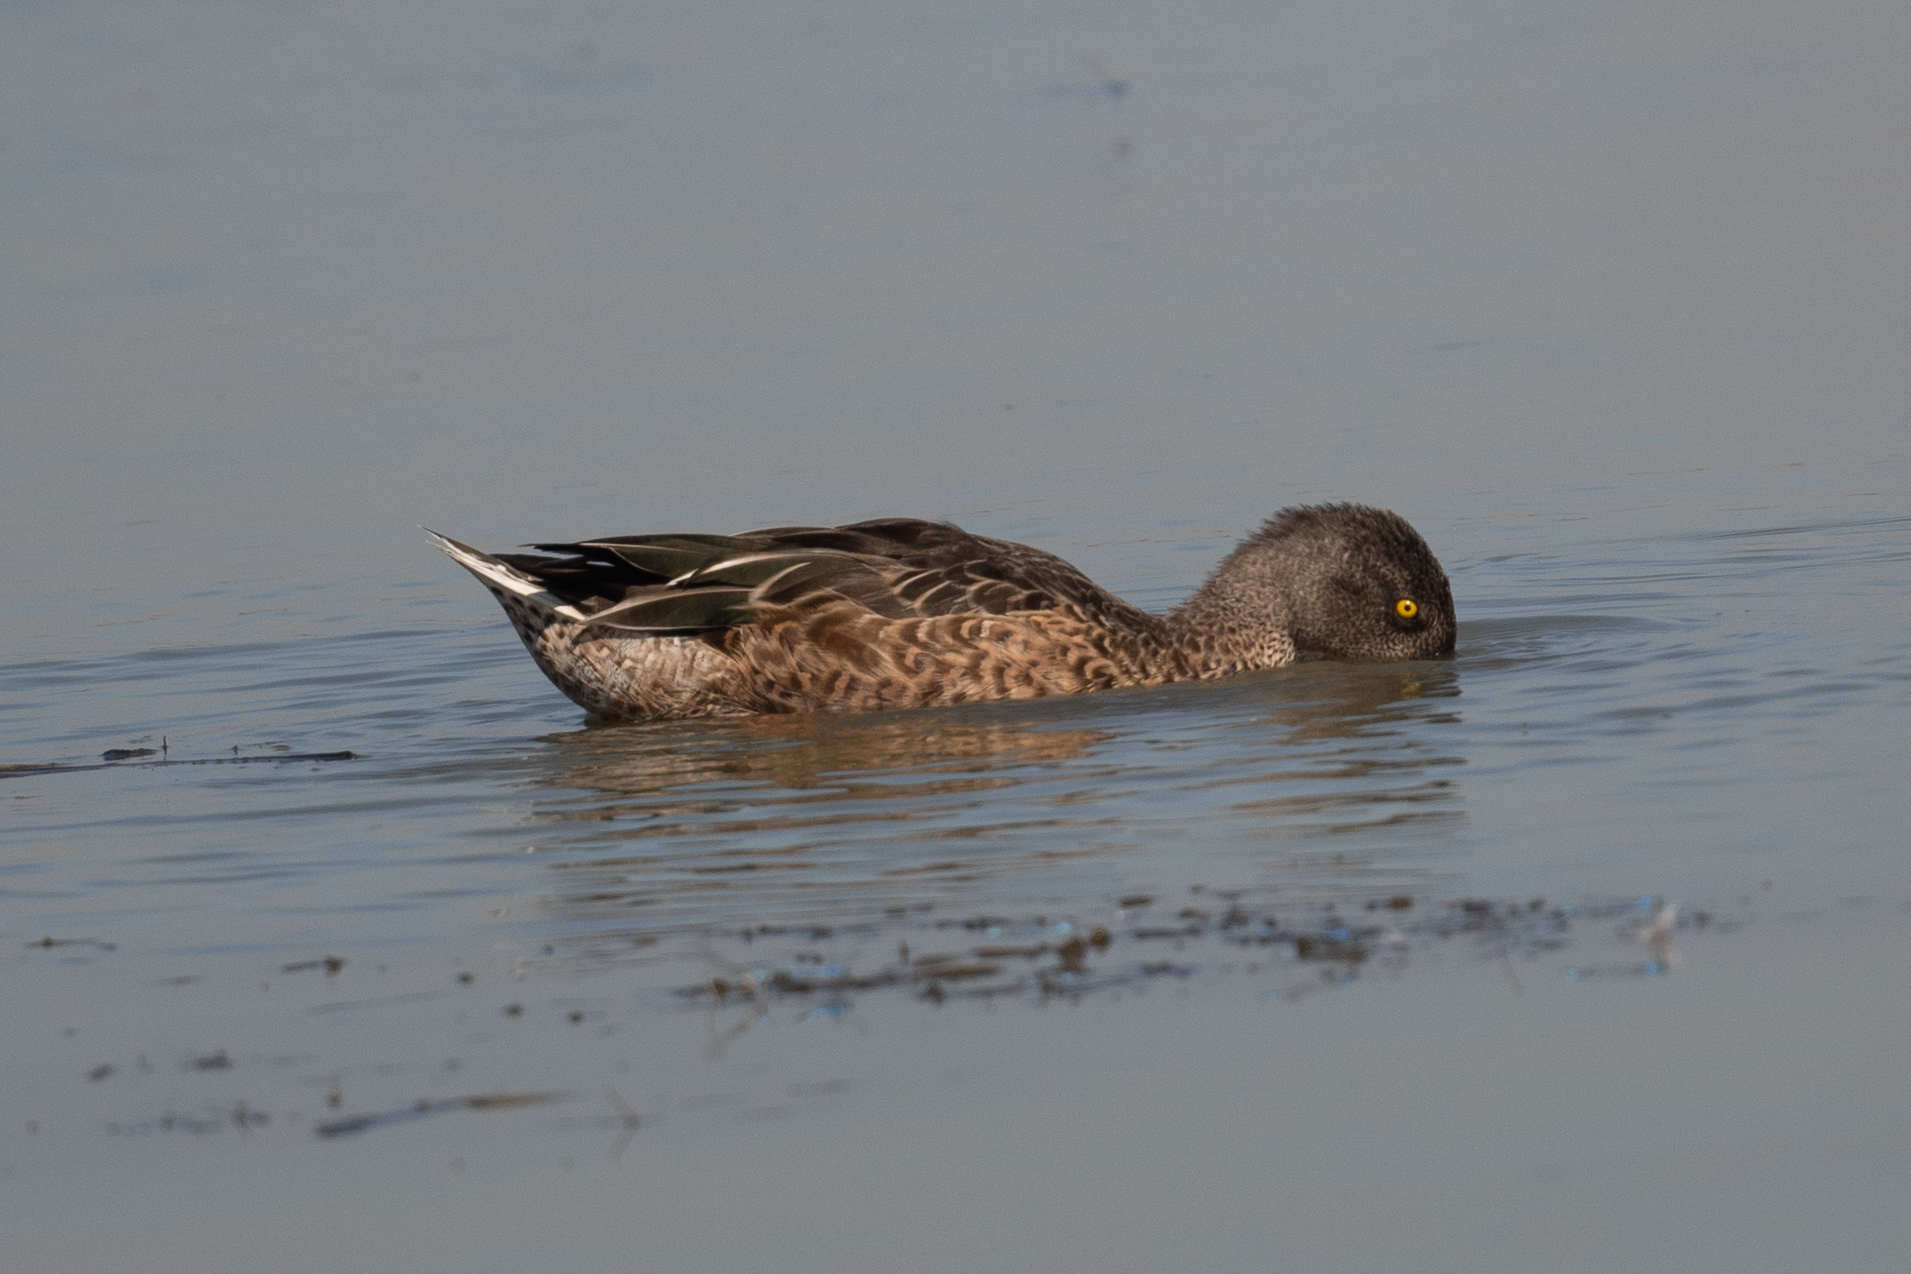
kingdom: Animalia
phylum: Chordata
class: Aves
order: Anseriformes
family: Anatidae
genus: Spatula
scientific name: Spatula clypeata
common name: Northern shoveler
